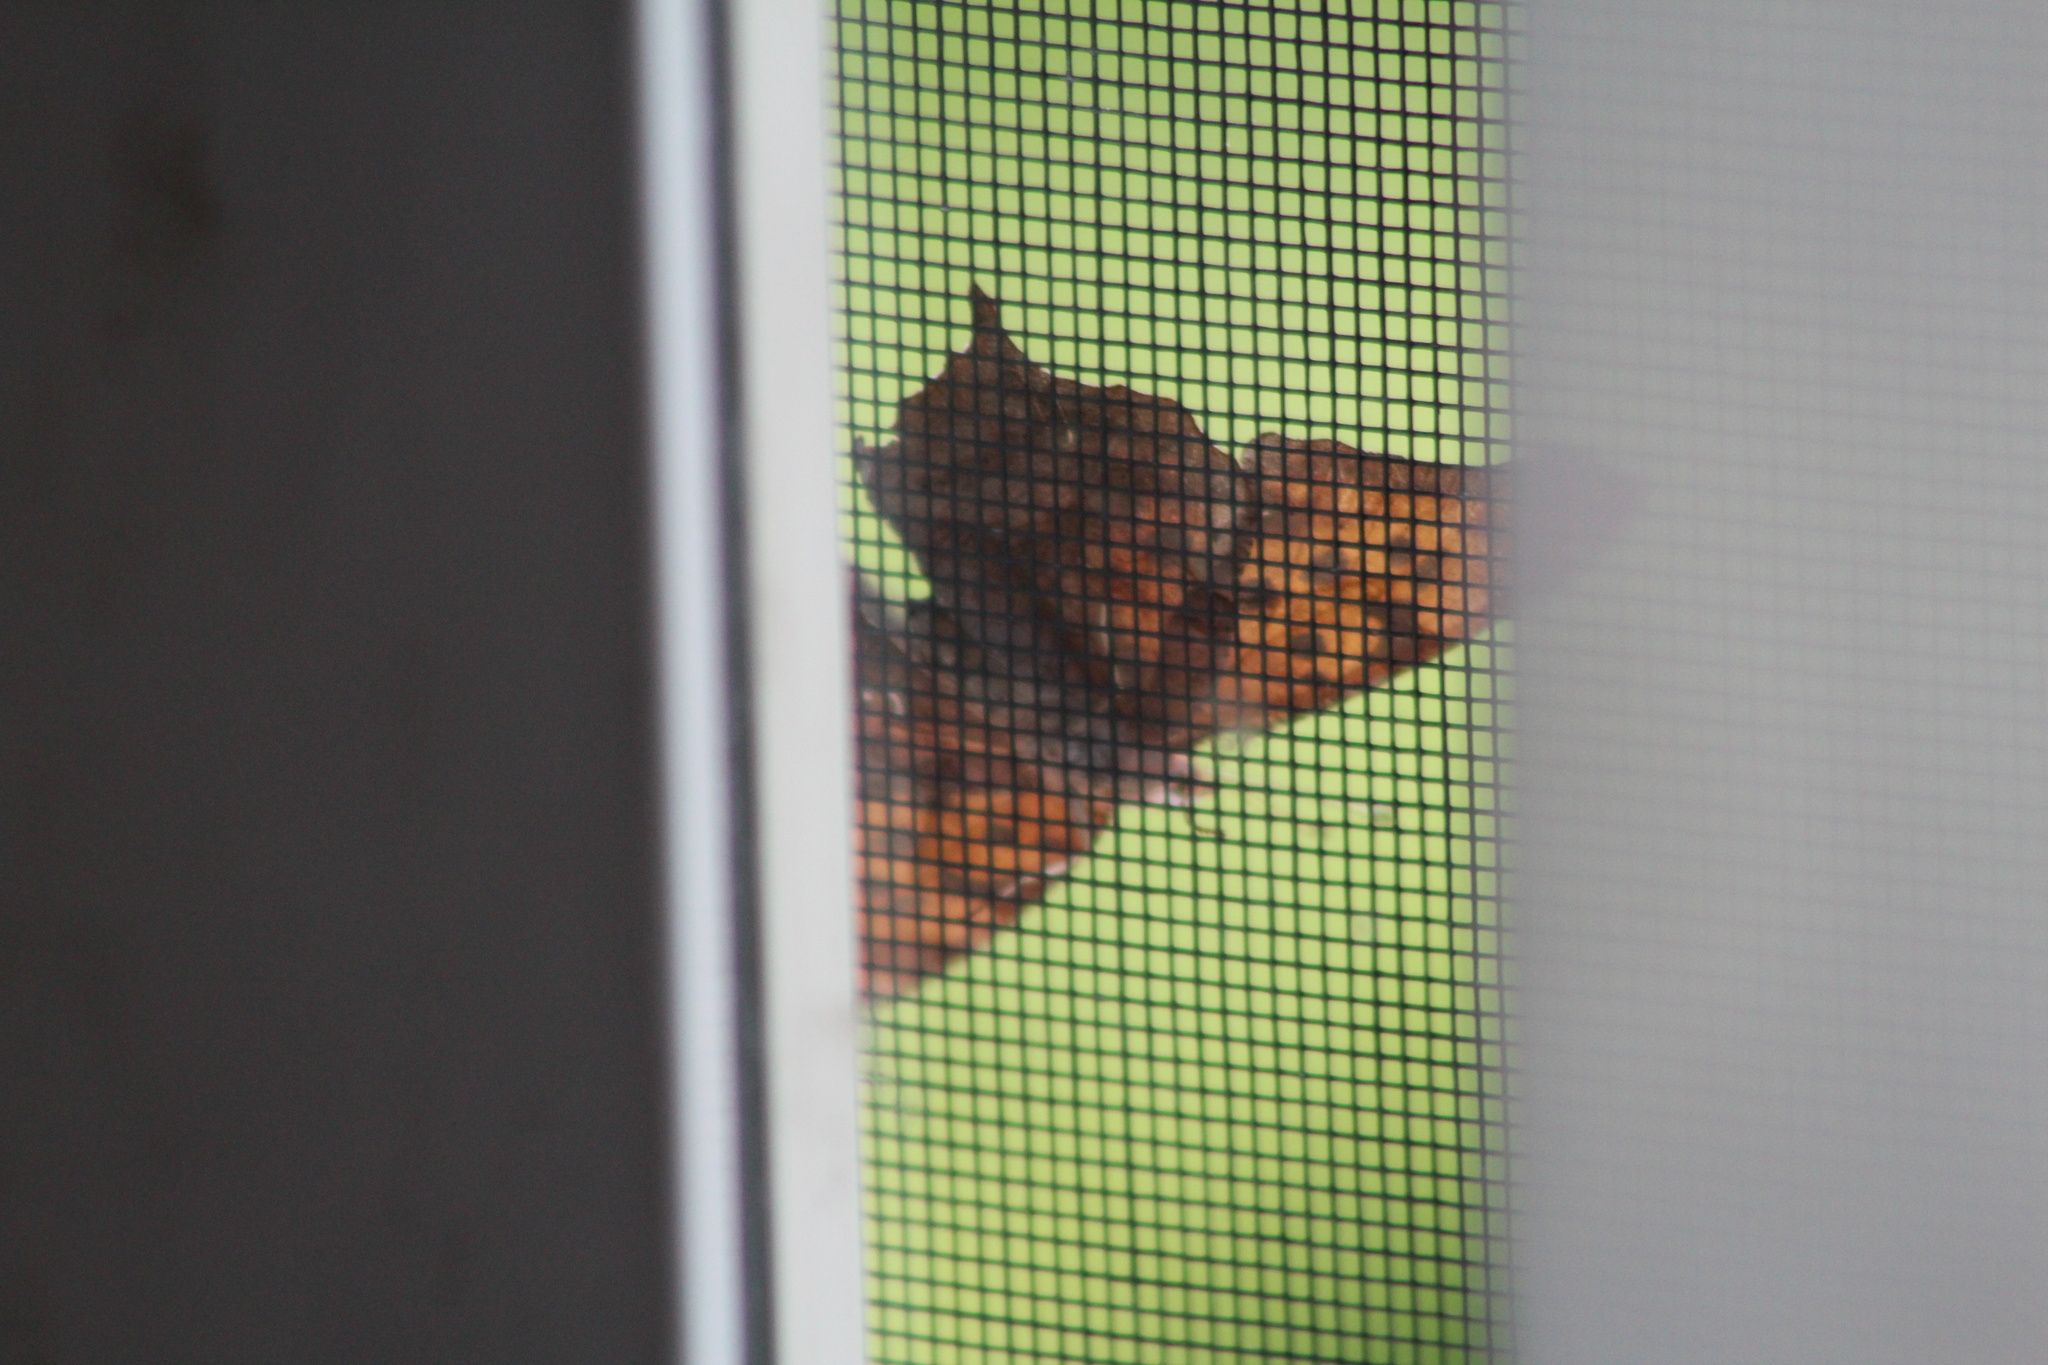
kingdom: Animalia
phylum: Arthropoda
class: Insecta
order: Lepidoptera
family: Nymphalidae
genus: Polygonia
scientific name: Polygonia interrogationis
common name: Question mark
